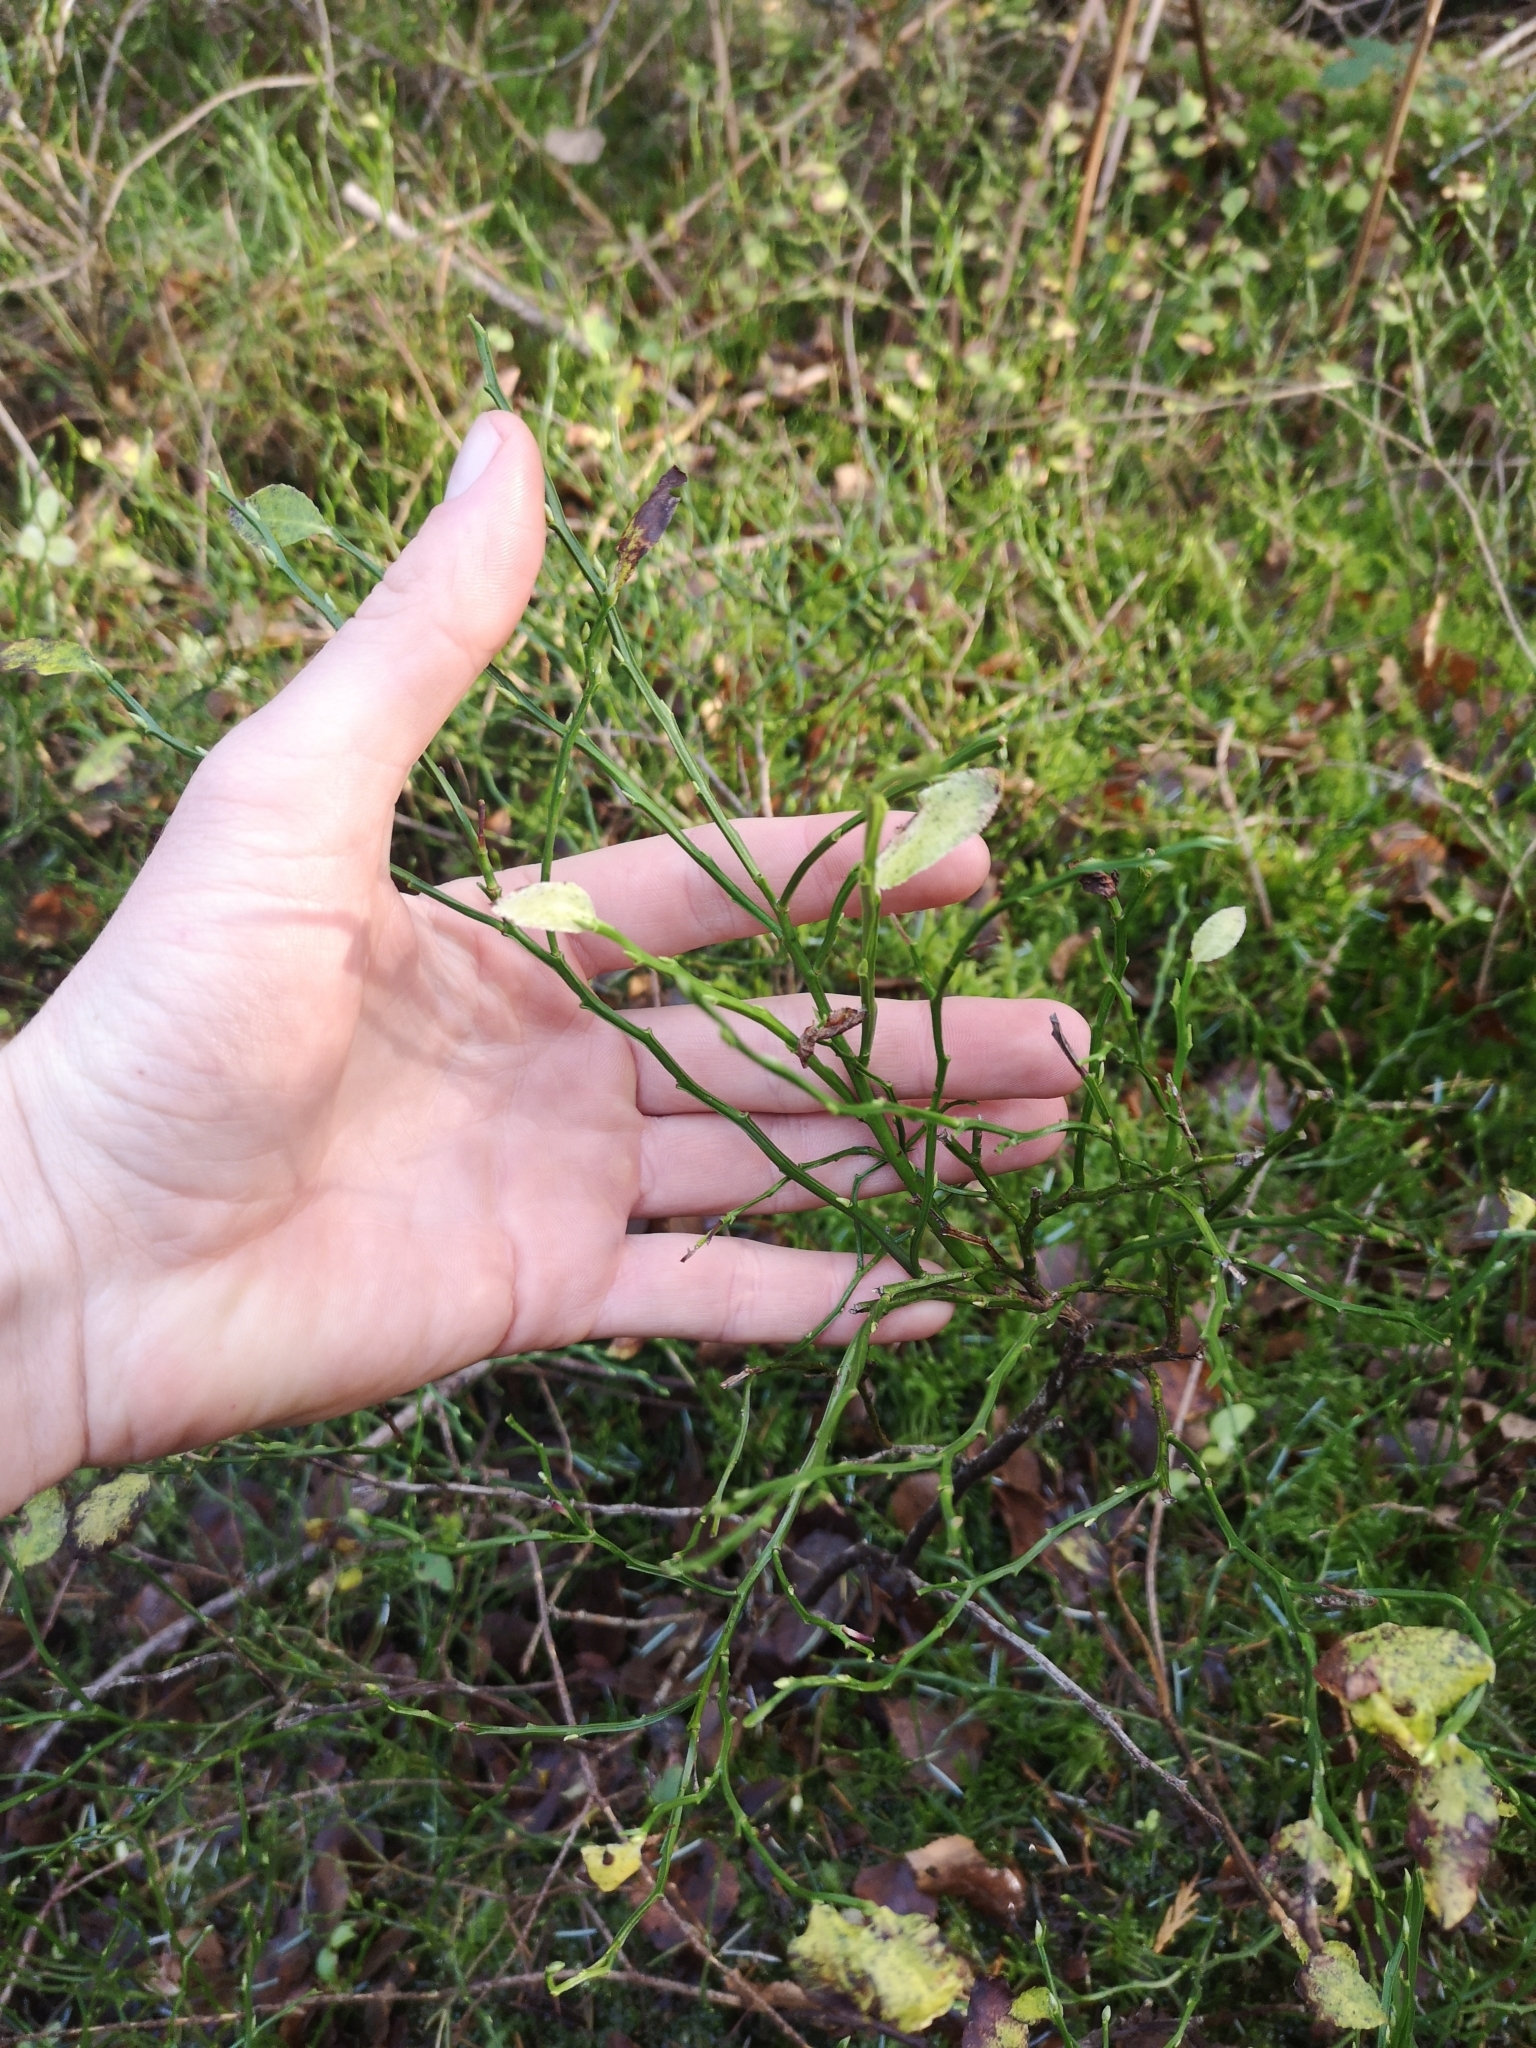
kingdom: Plantae
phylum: Tracheophyta
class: Magnoliopsida
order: Ericales
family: Ericaceae
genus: Vaccinium
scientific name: Vaccinium myrtillus
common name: Bilberry
